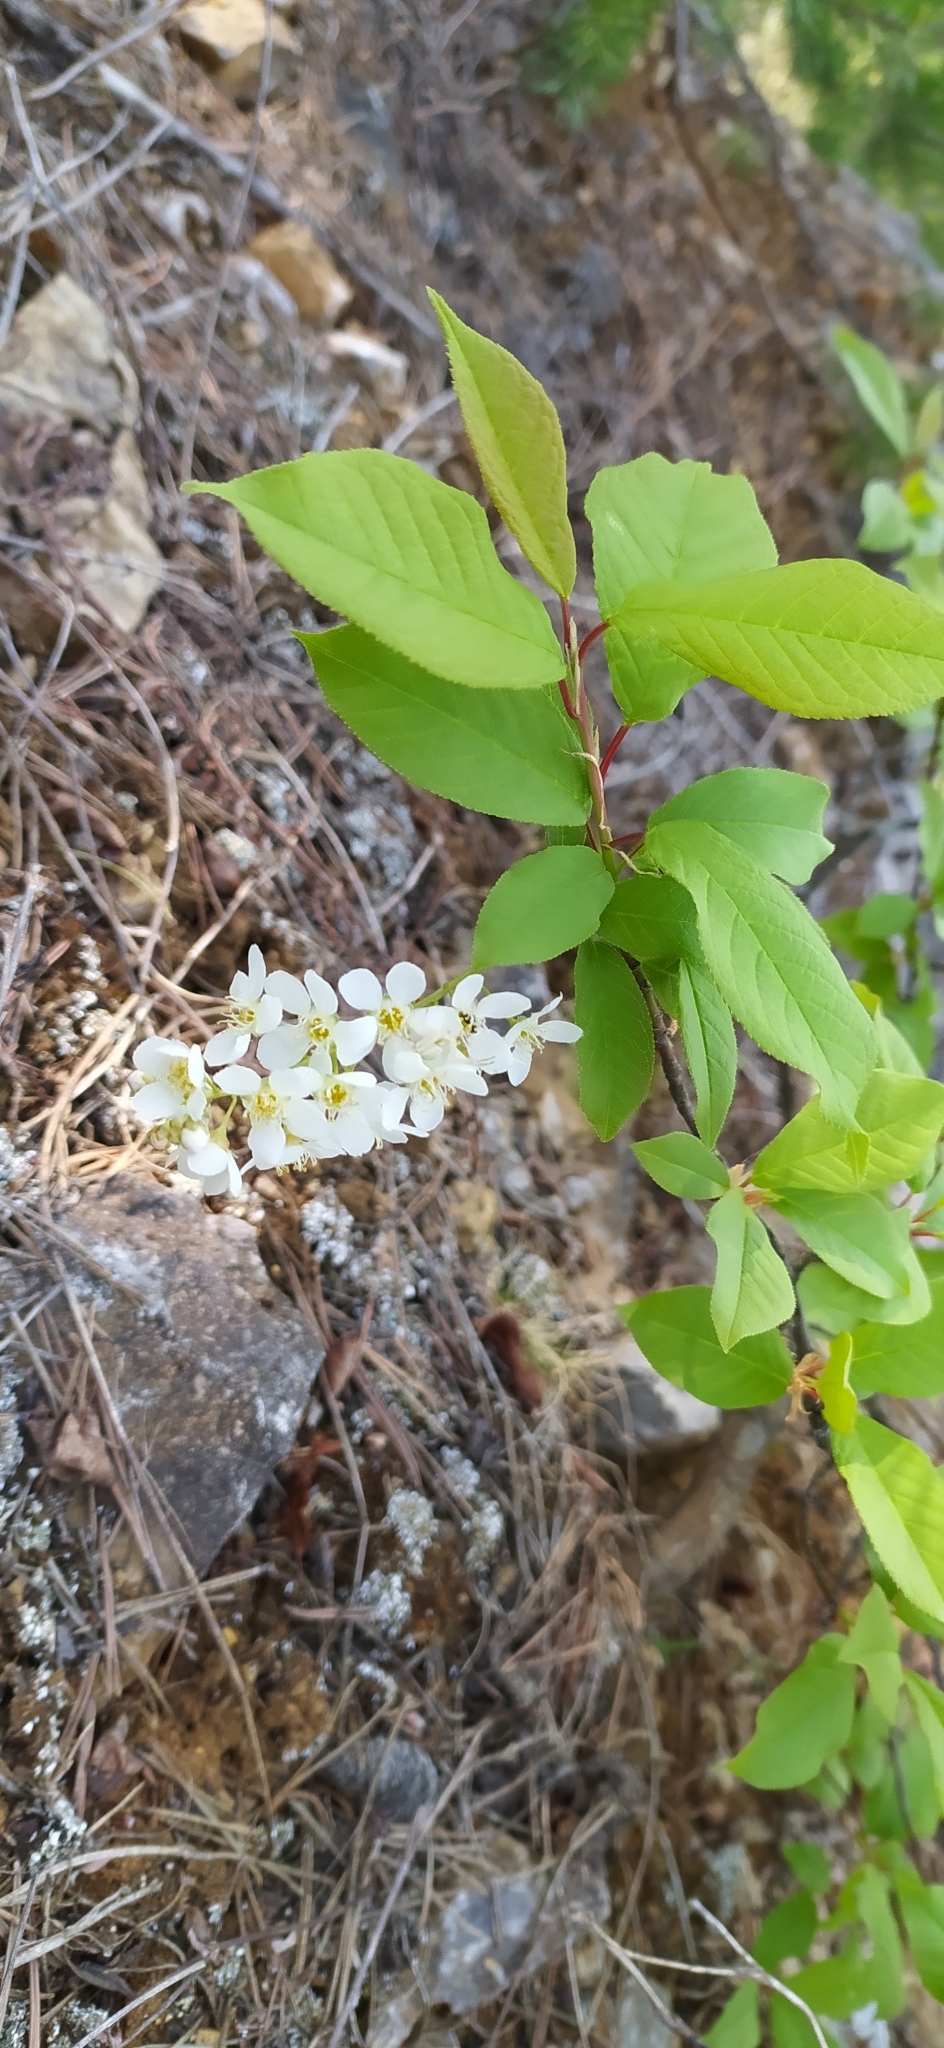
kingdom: Plantae
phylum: Tracheophyta
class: Magnoliopsida
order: Rosales
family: Rosaceae
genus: Prunus
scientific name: Prunus padus
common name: Bird cherry
